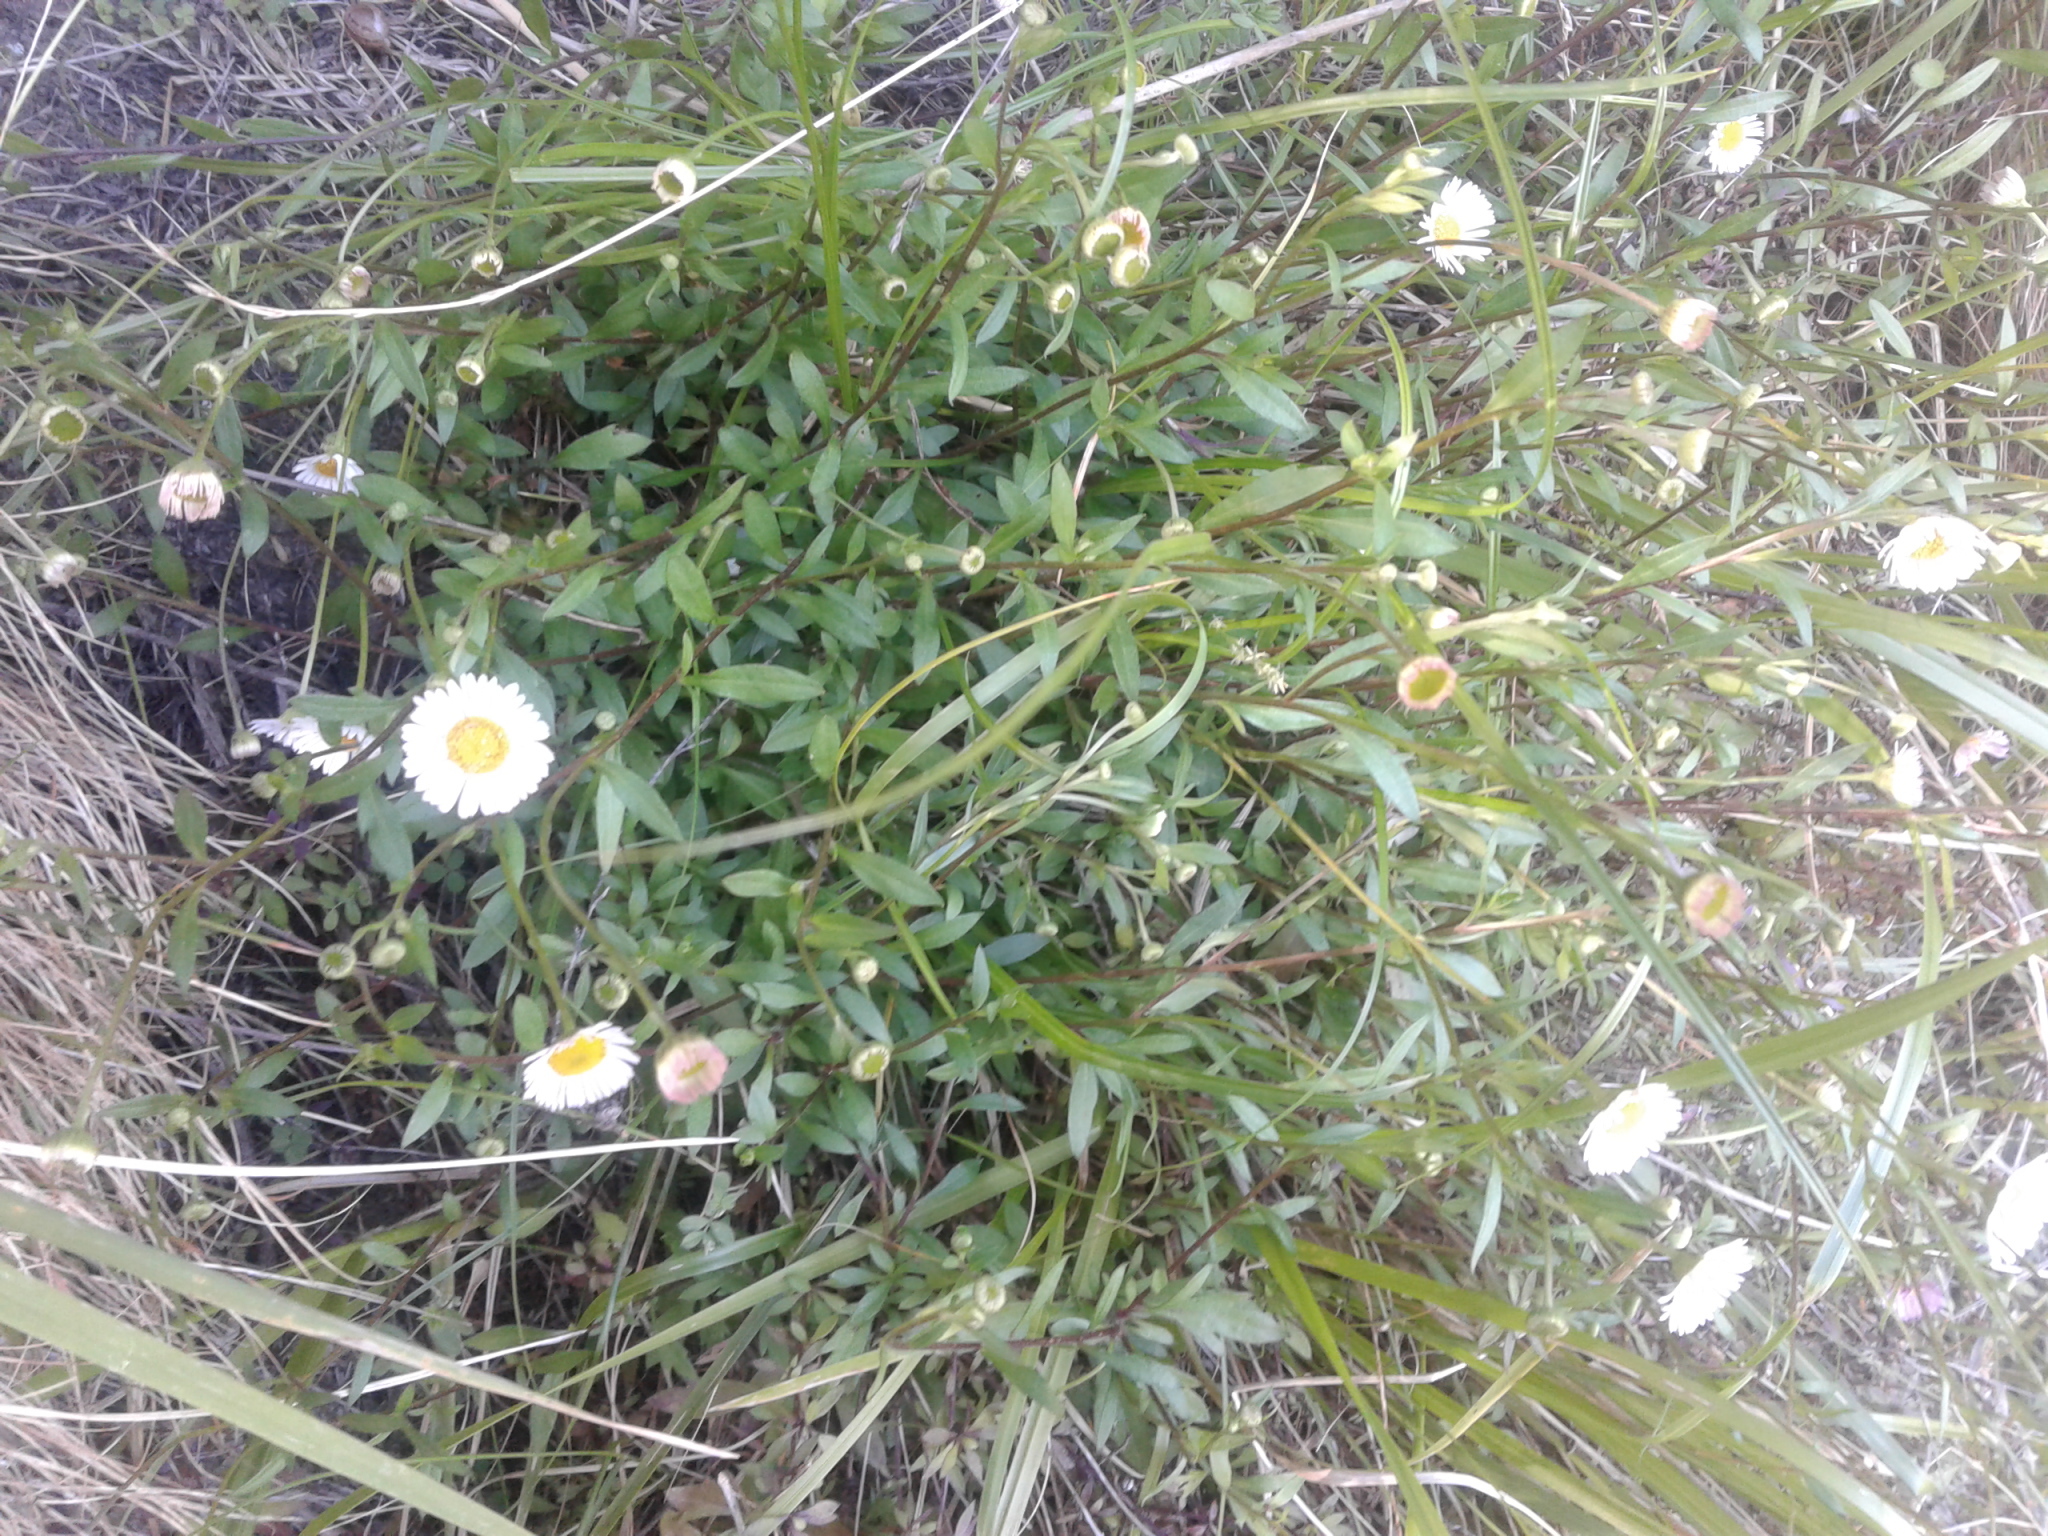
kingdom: Plantae
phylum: Tracheophyta
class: Magnoliopsida
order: Asterales
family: Asteraceae
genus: Erigeron
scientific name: Erigeron karvinskianus
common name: Mexican fleabane
